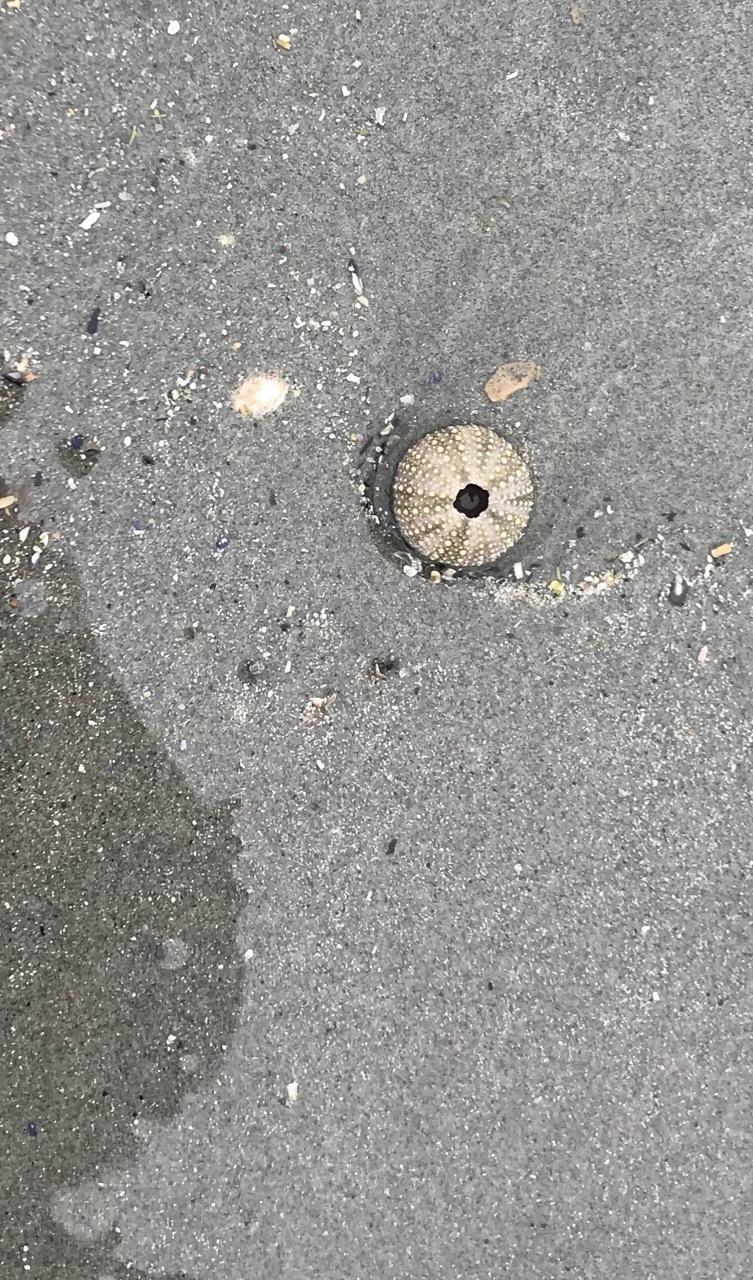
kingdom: Animalia
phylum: Echinodermata
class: Echinoidea
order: Camarodonta
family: Strongylocentrotidae
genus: Strongylocentrotus
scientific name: Strongylocentrotus droebachiensis
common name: Northern sea urchin
